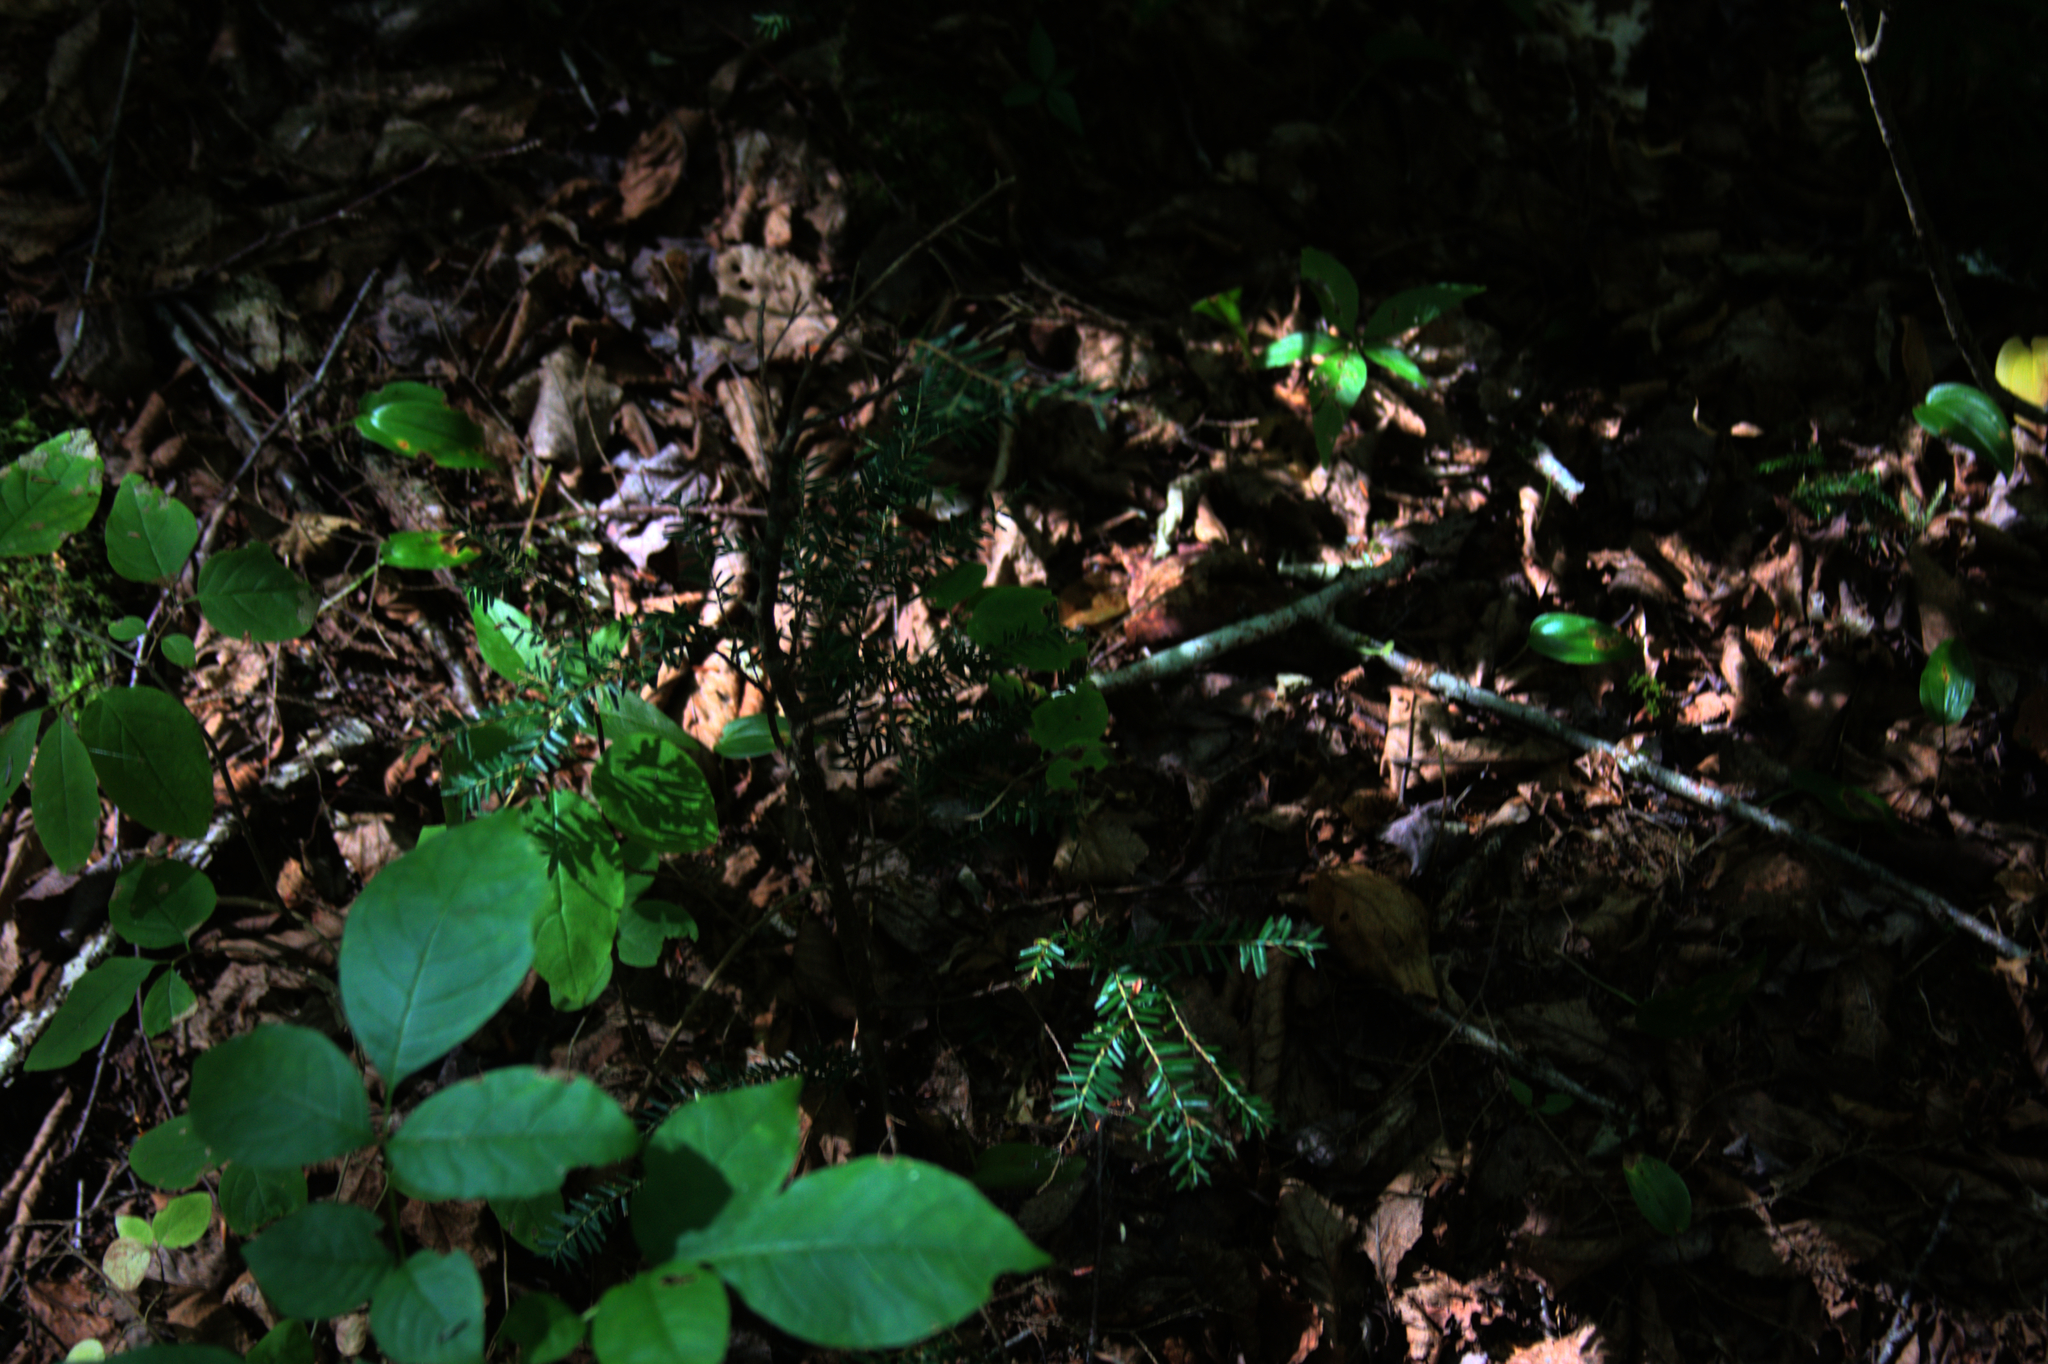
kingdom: Plantae
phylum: Tracheophyta
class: Pinopsida
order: Pinales
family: Pinaceae
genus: Tsuga
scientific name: Tsuga canadensis
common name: Eastern hemlock
